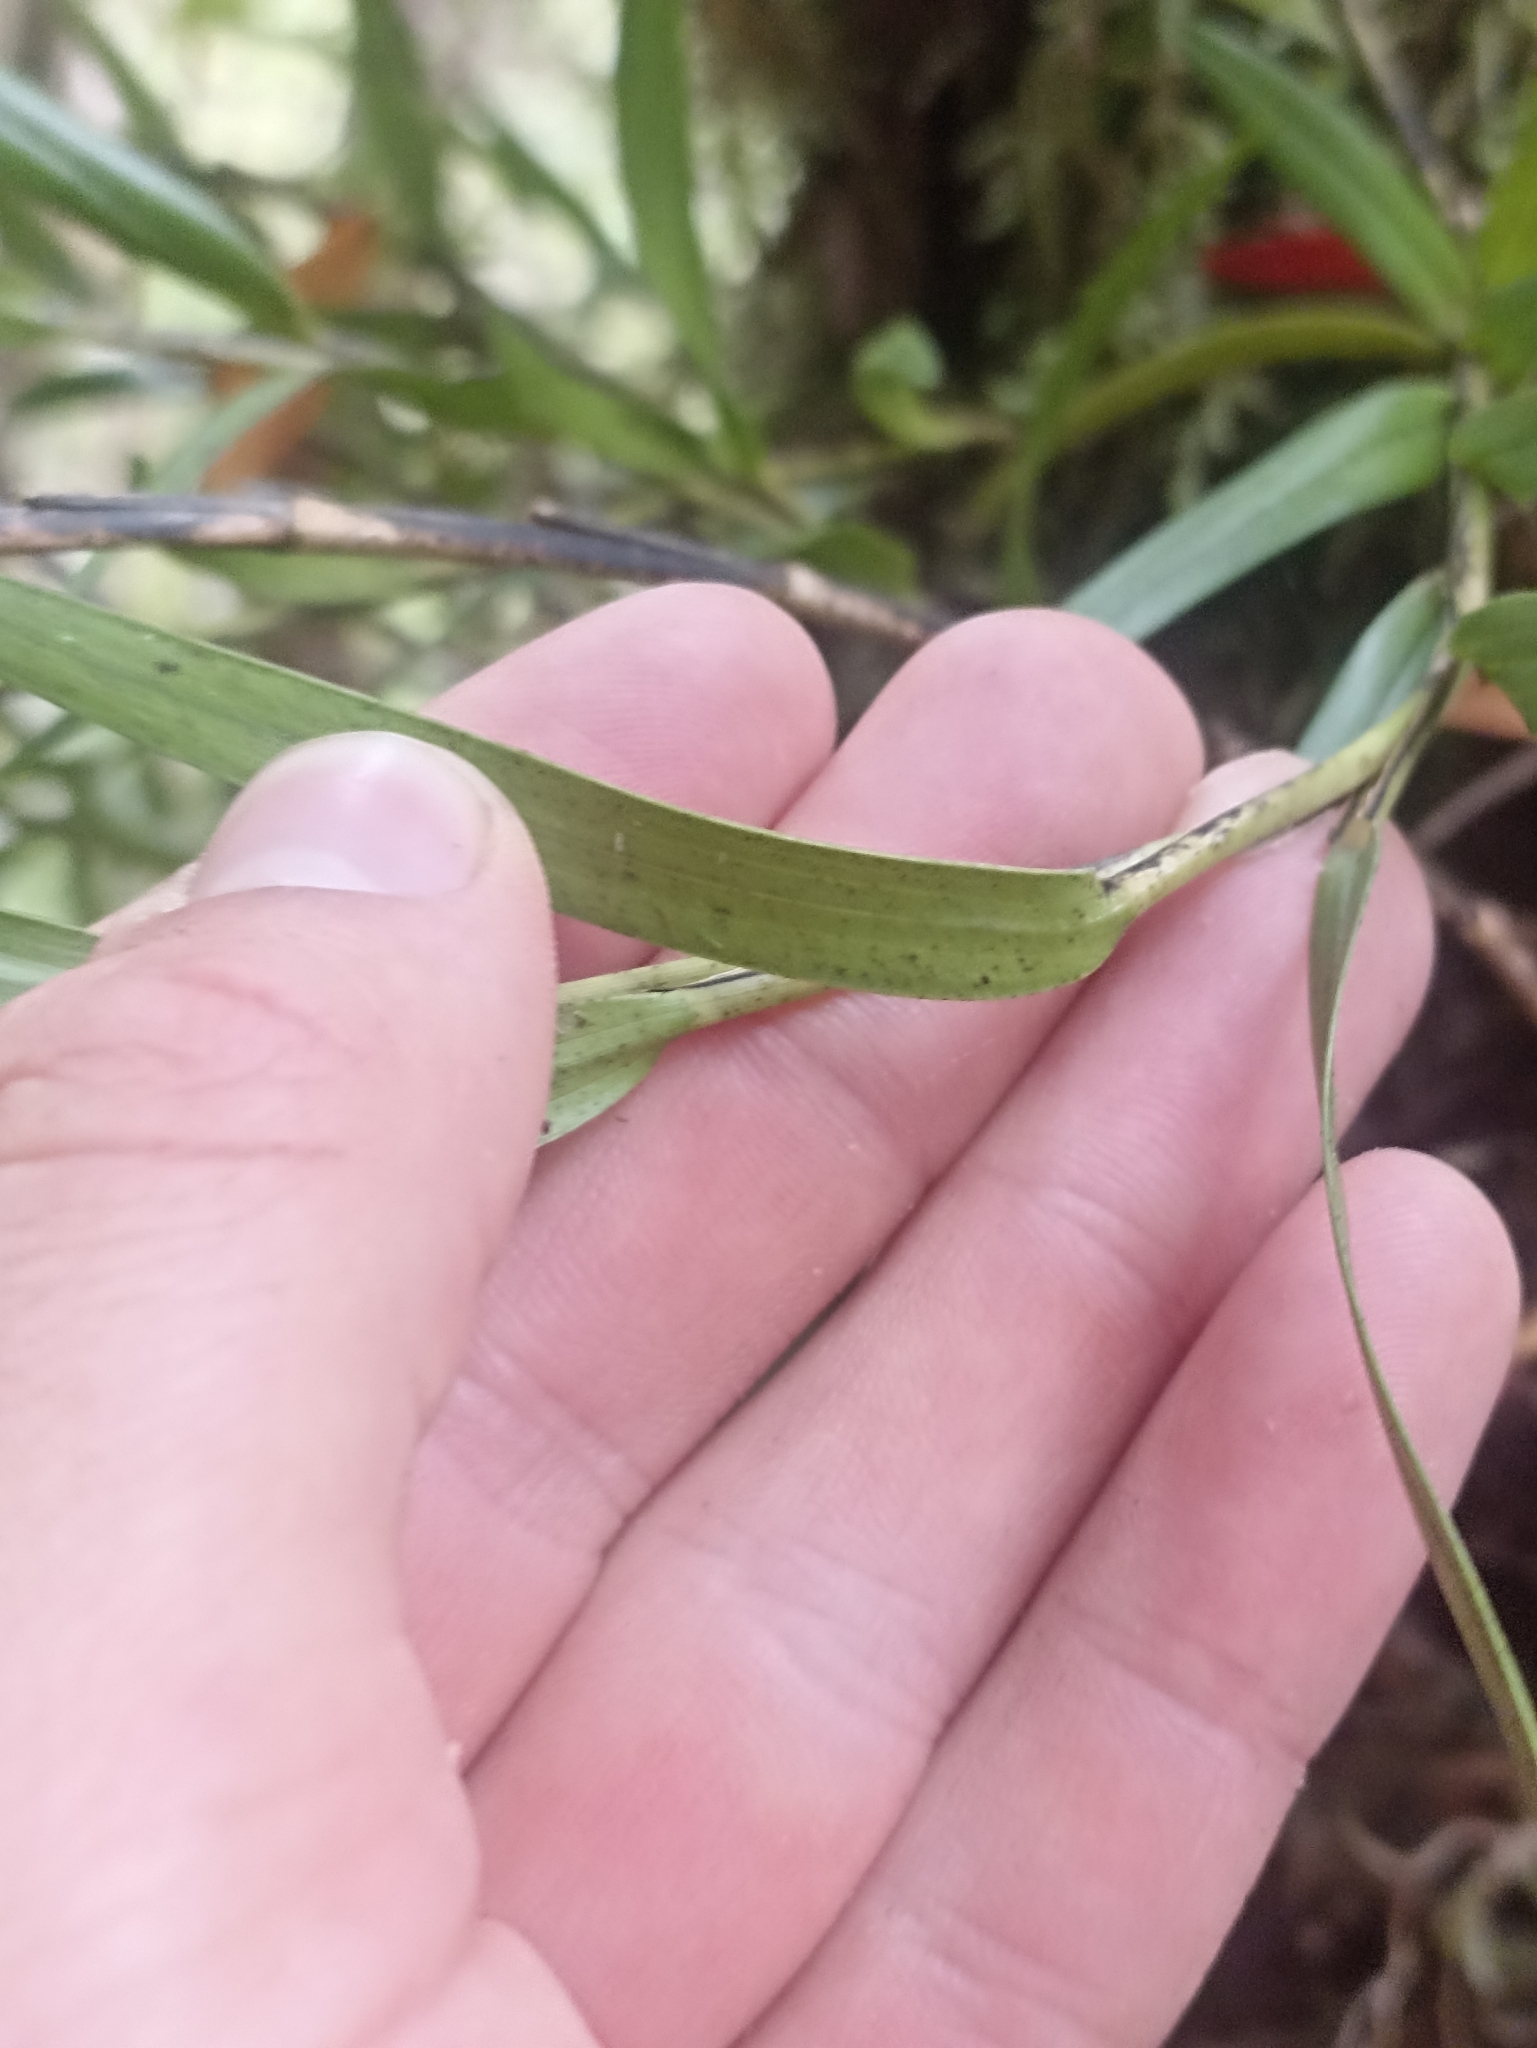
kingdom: Plantae
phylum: Tracheophyta
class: Liliopsida
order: Asparagales
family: Orchidaceae
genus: Earina
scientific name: Earina autumnalis
